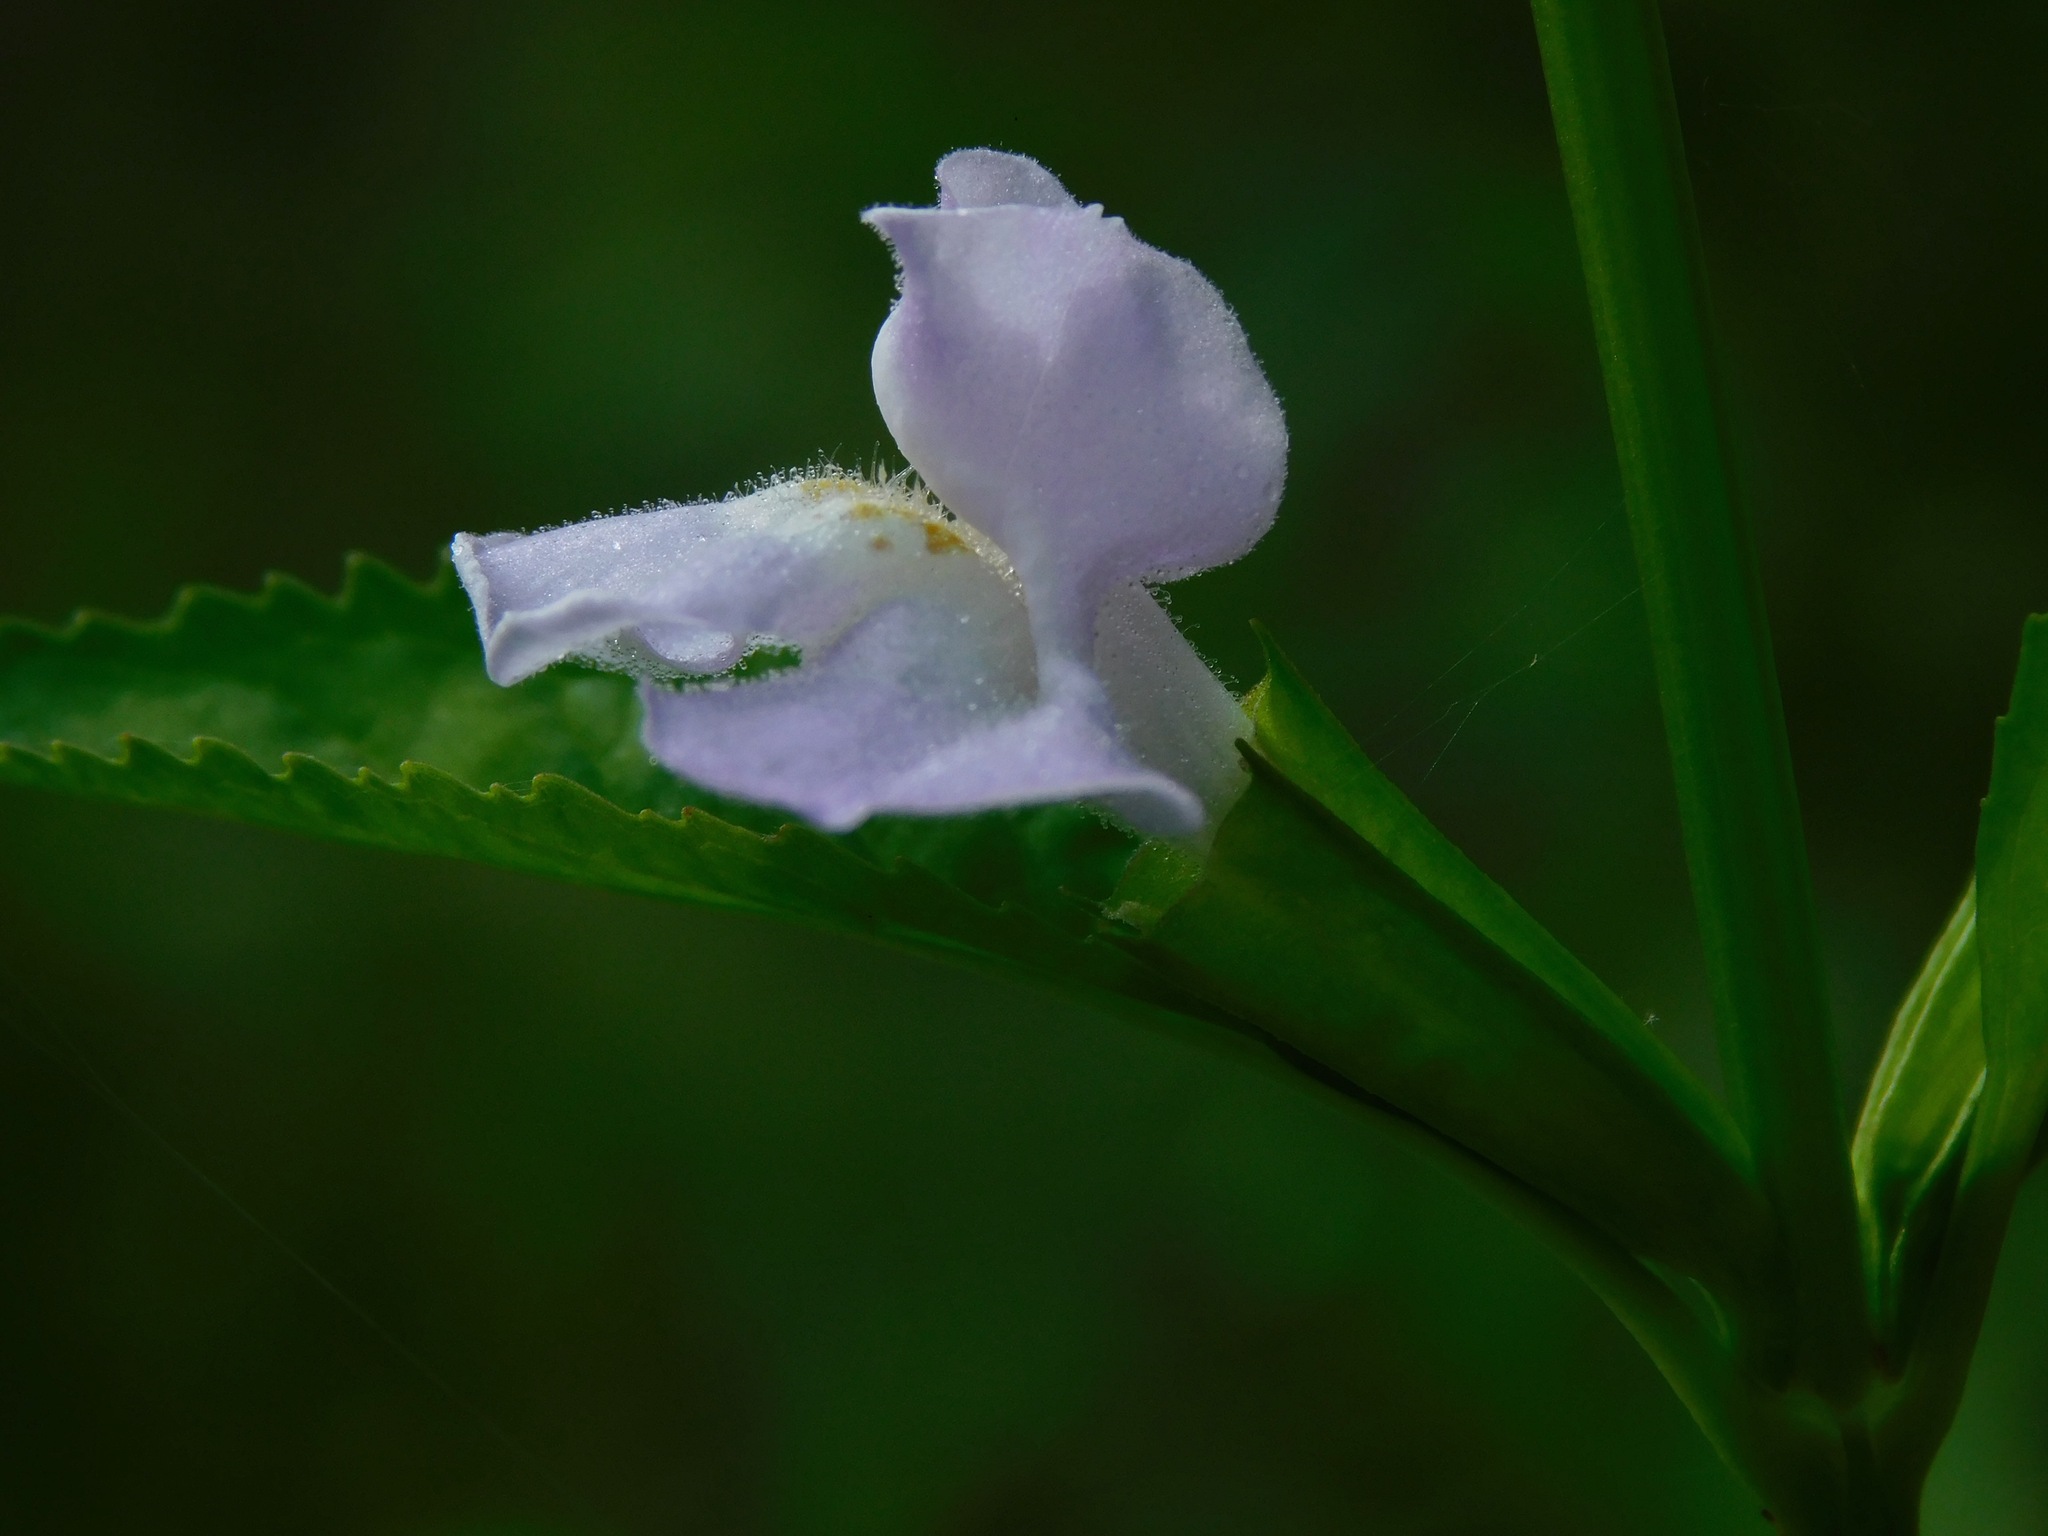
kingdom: Plantae
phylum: Tracheophyta
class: Magnoliopsida
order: Lamiales
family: Phrymaceae
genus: Mimulus
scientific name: Mimulus alatus
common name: Sharp-wing monkey-flower
